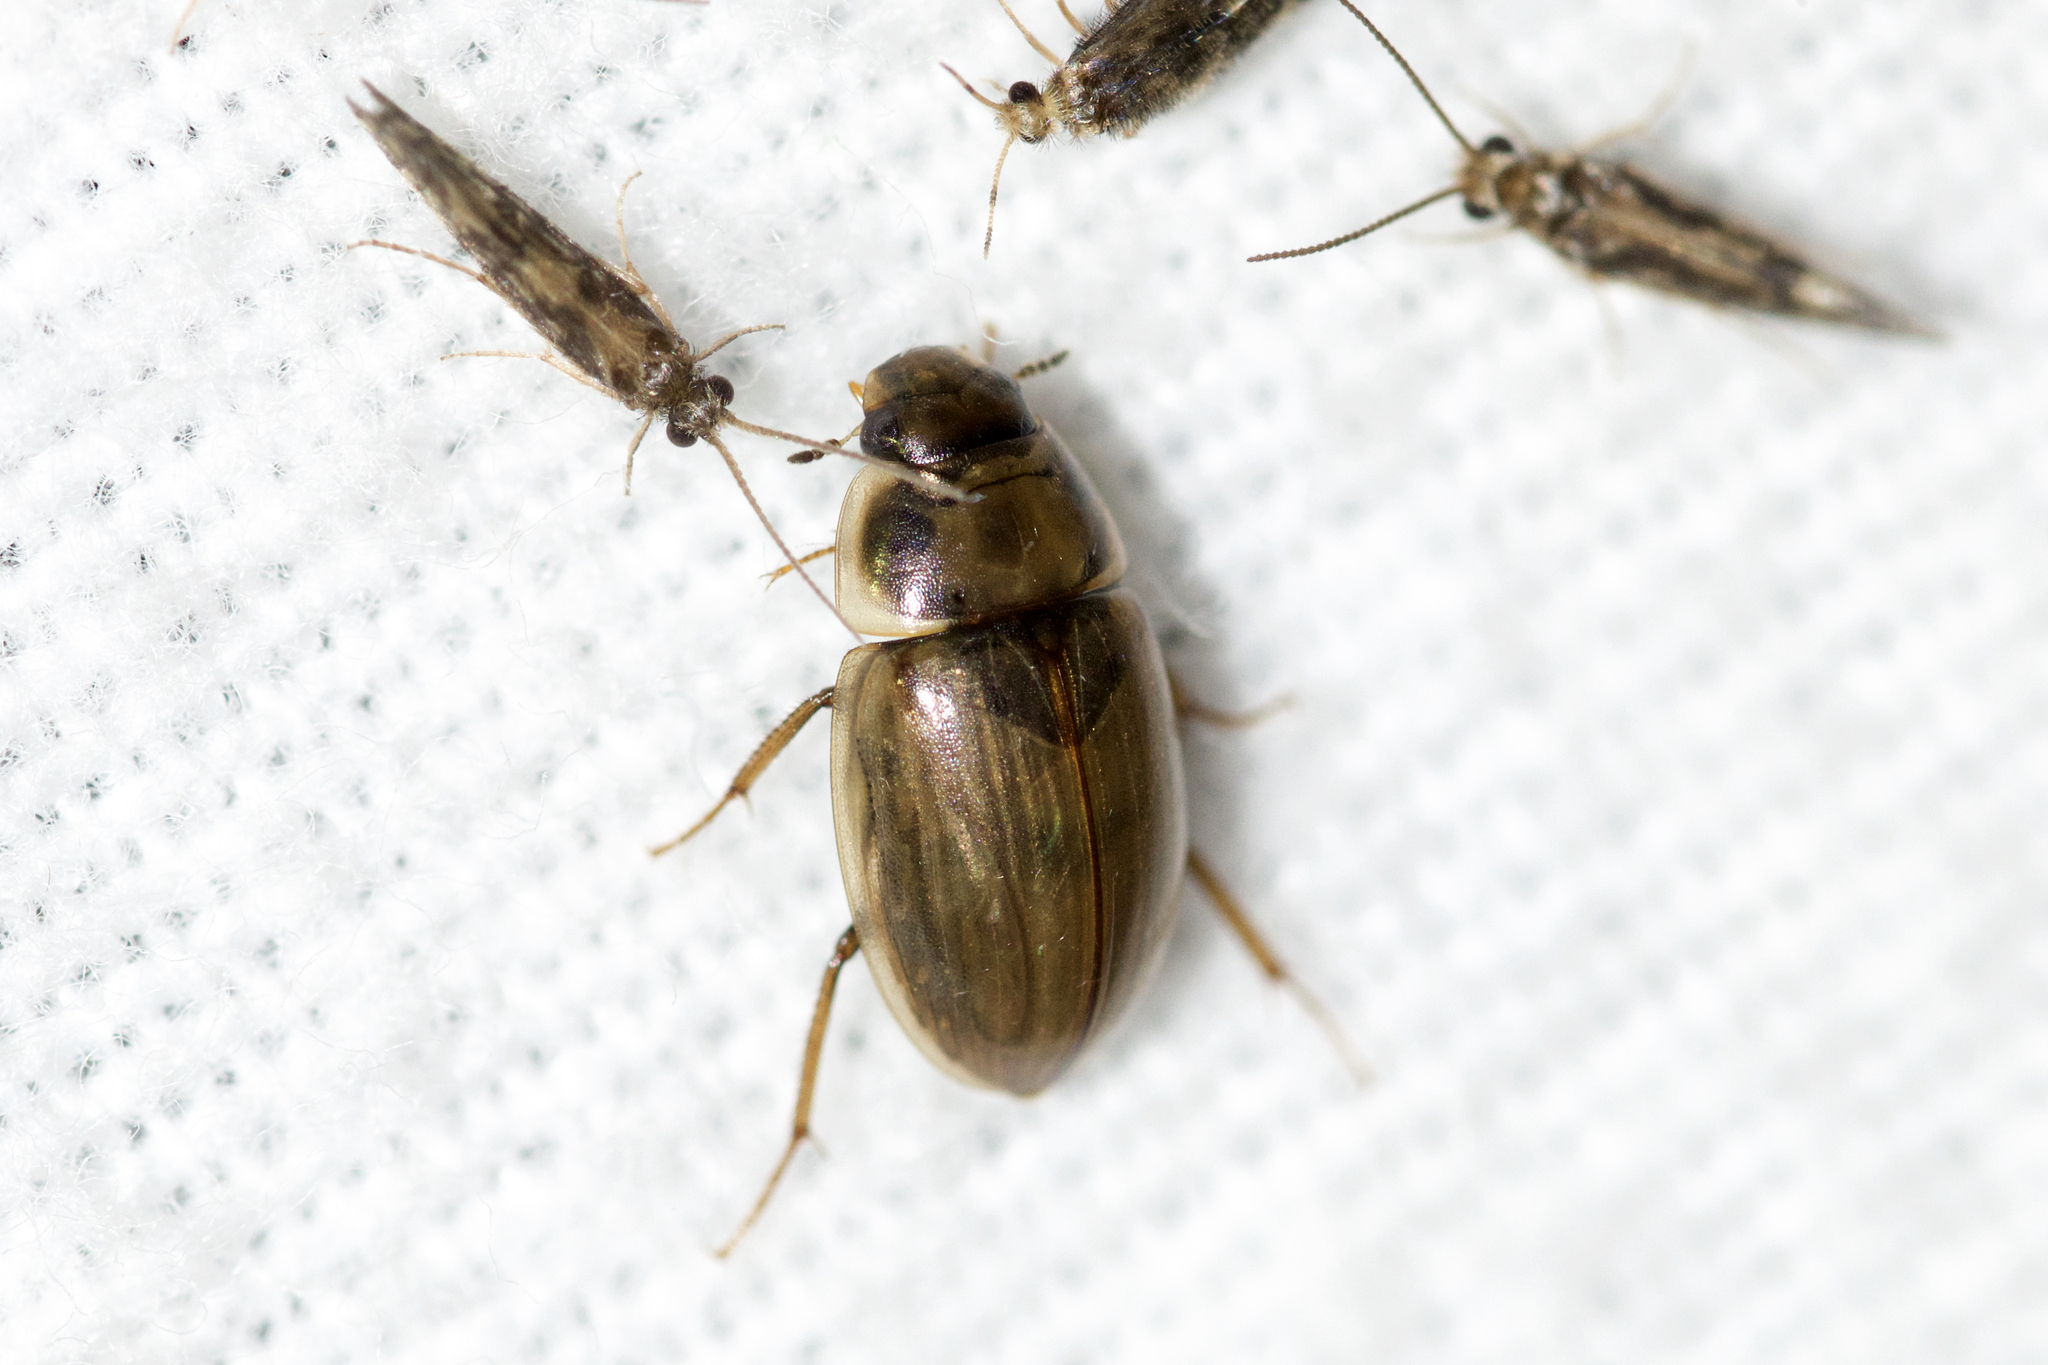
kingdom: Animalia
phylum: Arthropoda
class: Insecta
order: Coleoptera
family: Hydrophilidae
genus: Enochrus
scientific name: Enochrus
